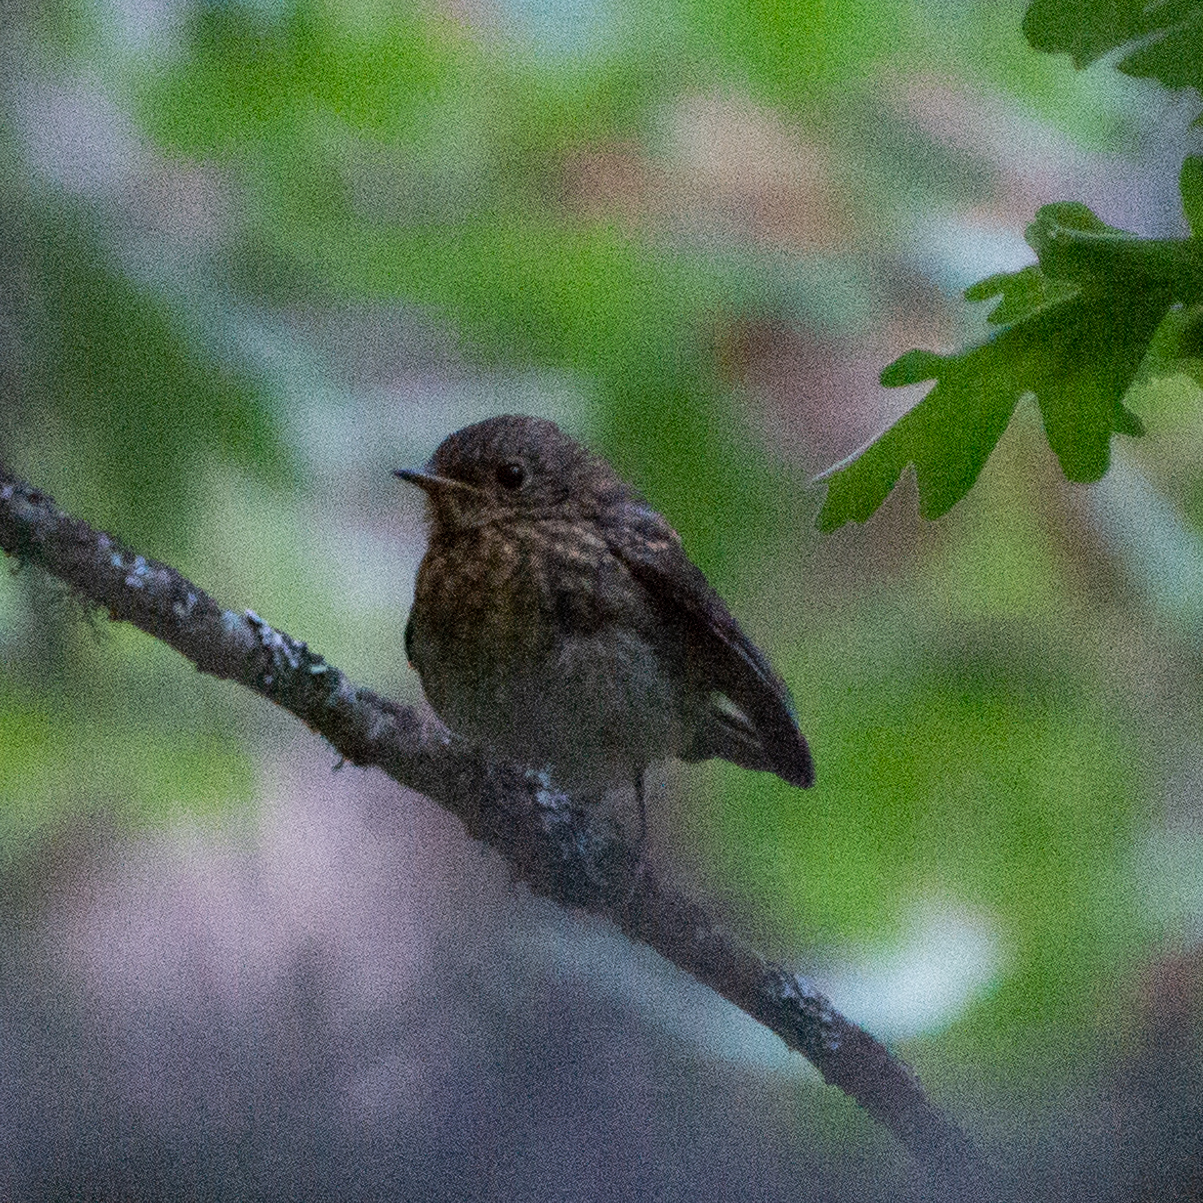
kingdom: Animalia
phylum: Chordata
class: Aves
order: Passeriformes
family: Muscicapidae
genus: Erithacus
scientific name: Erithacus rubecula
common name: European robin
